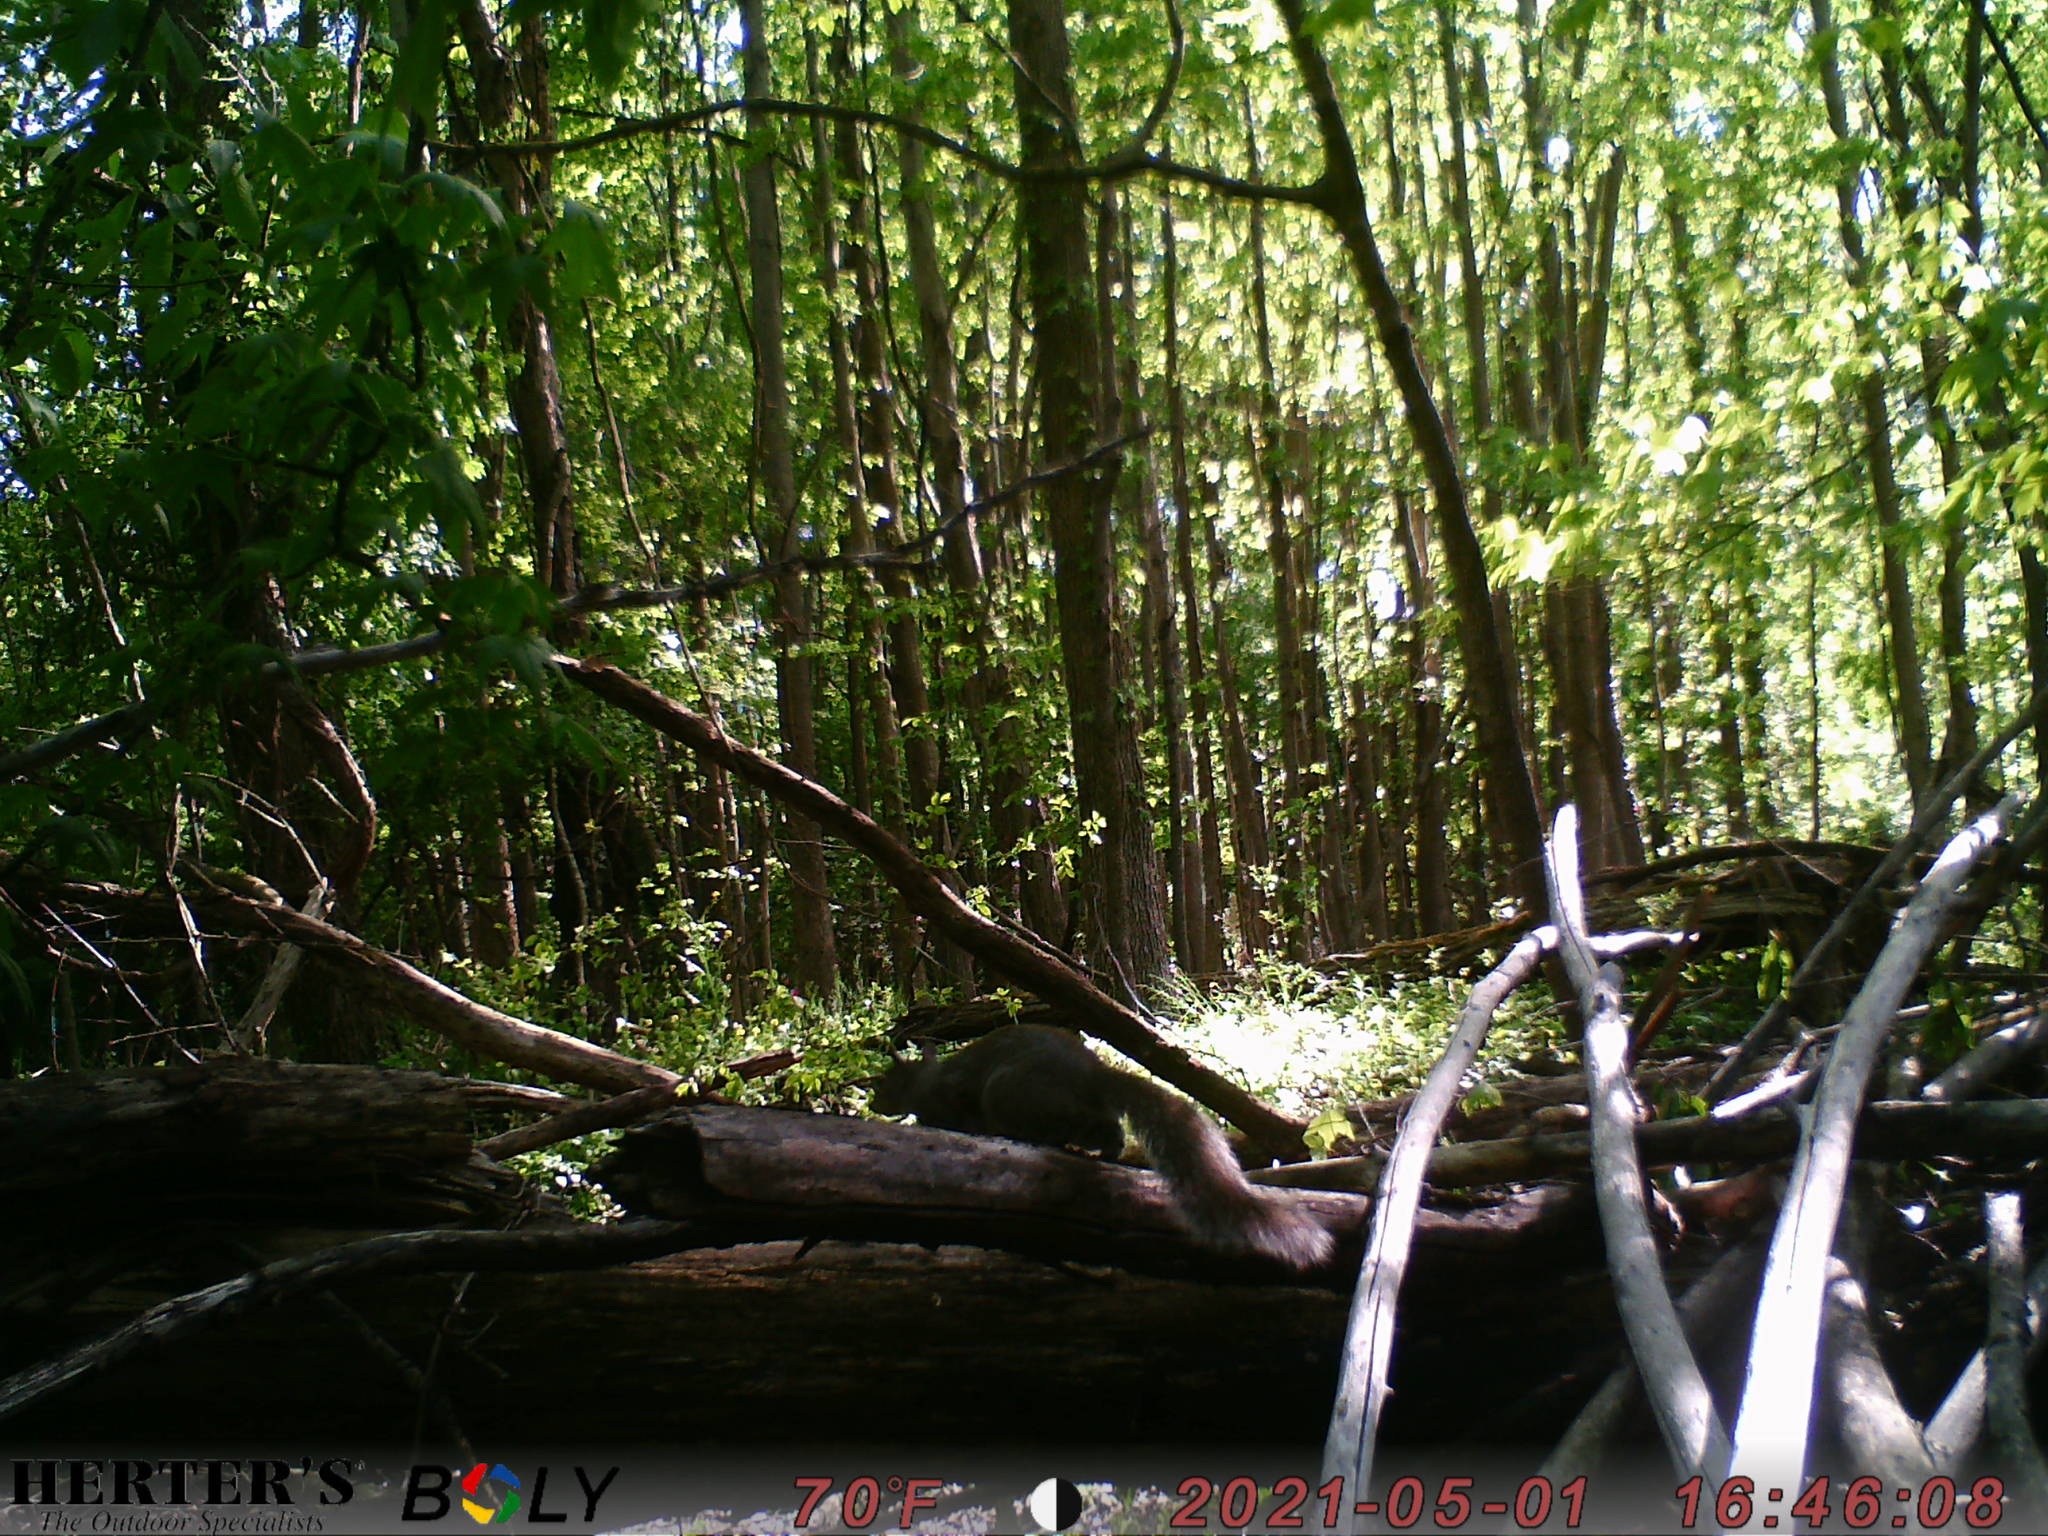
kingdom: Animalia
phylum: Chordata
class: Mammalia
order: Rodentia
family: Sciuridae
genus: Sciurus
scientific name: Sciurus carolinensis
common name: Eastern gray squirrel
